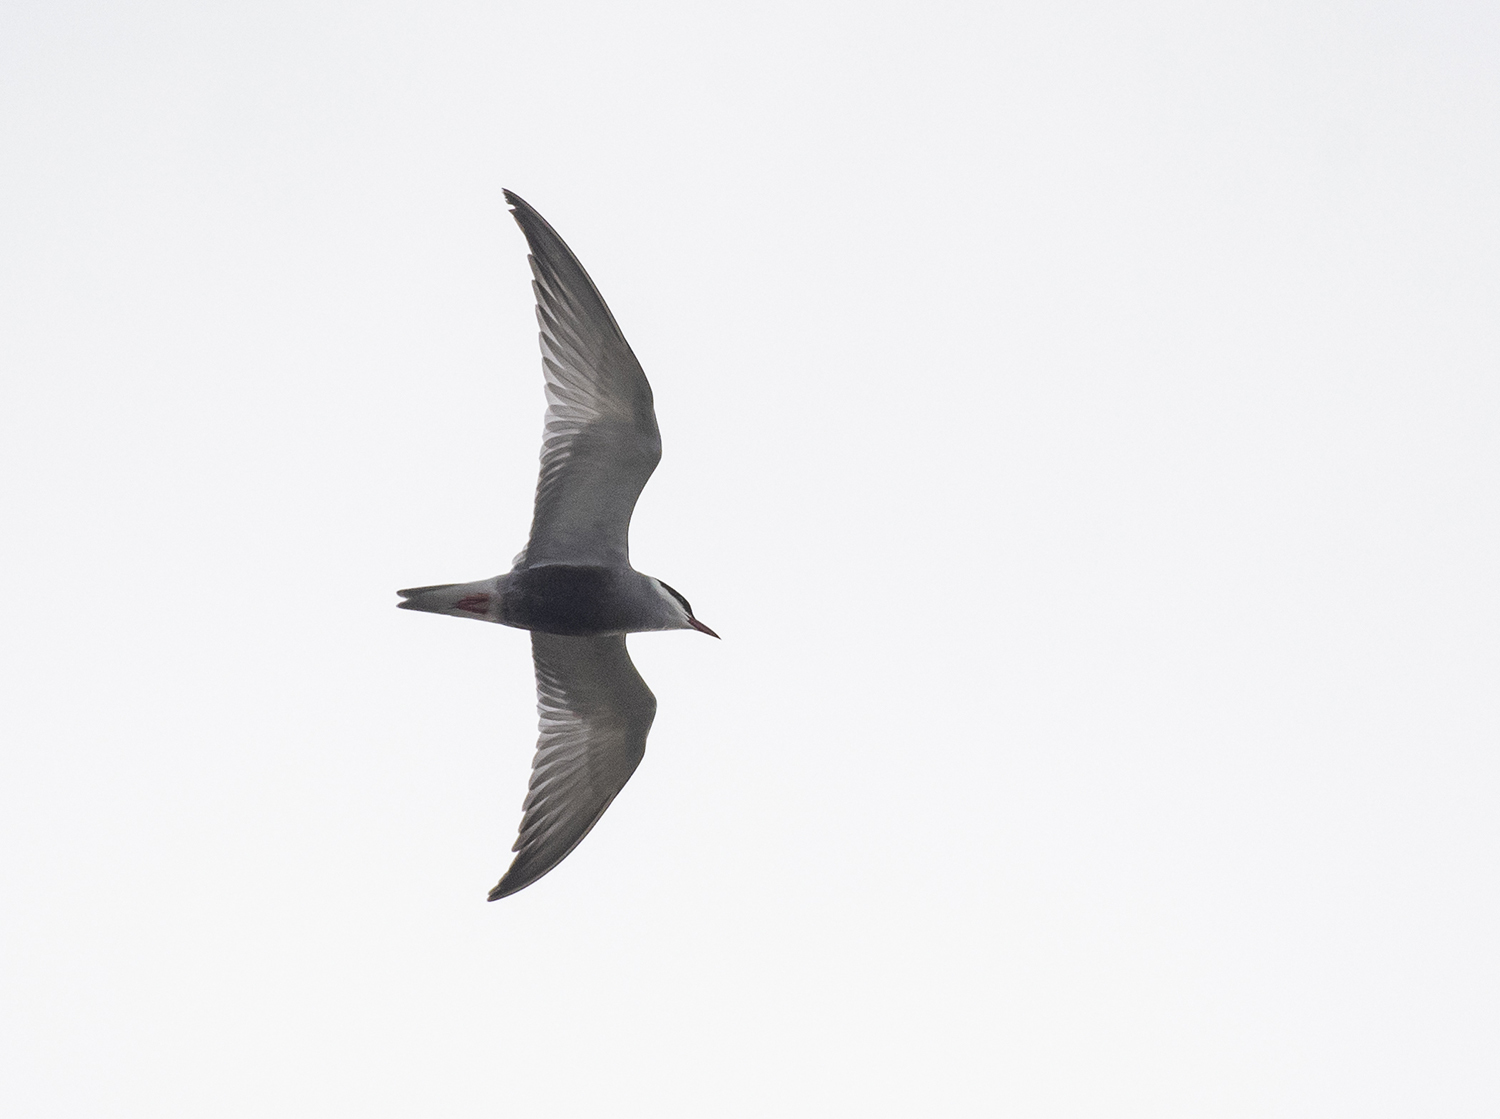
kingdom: Animalia
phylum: Chordata
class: Aves
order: Charadriiformes
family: Laridae
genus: Chlidonias
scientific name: Chlidonias hybrida
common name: Whiskered tern
